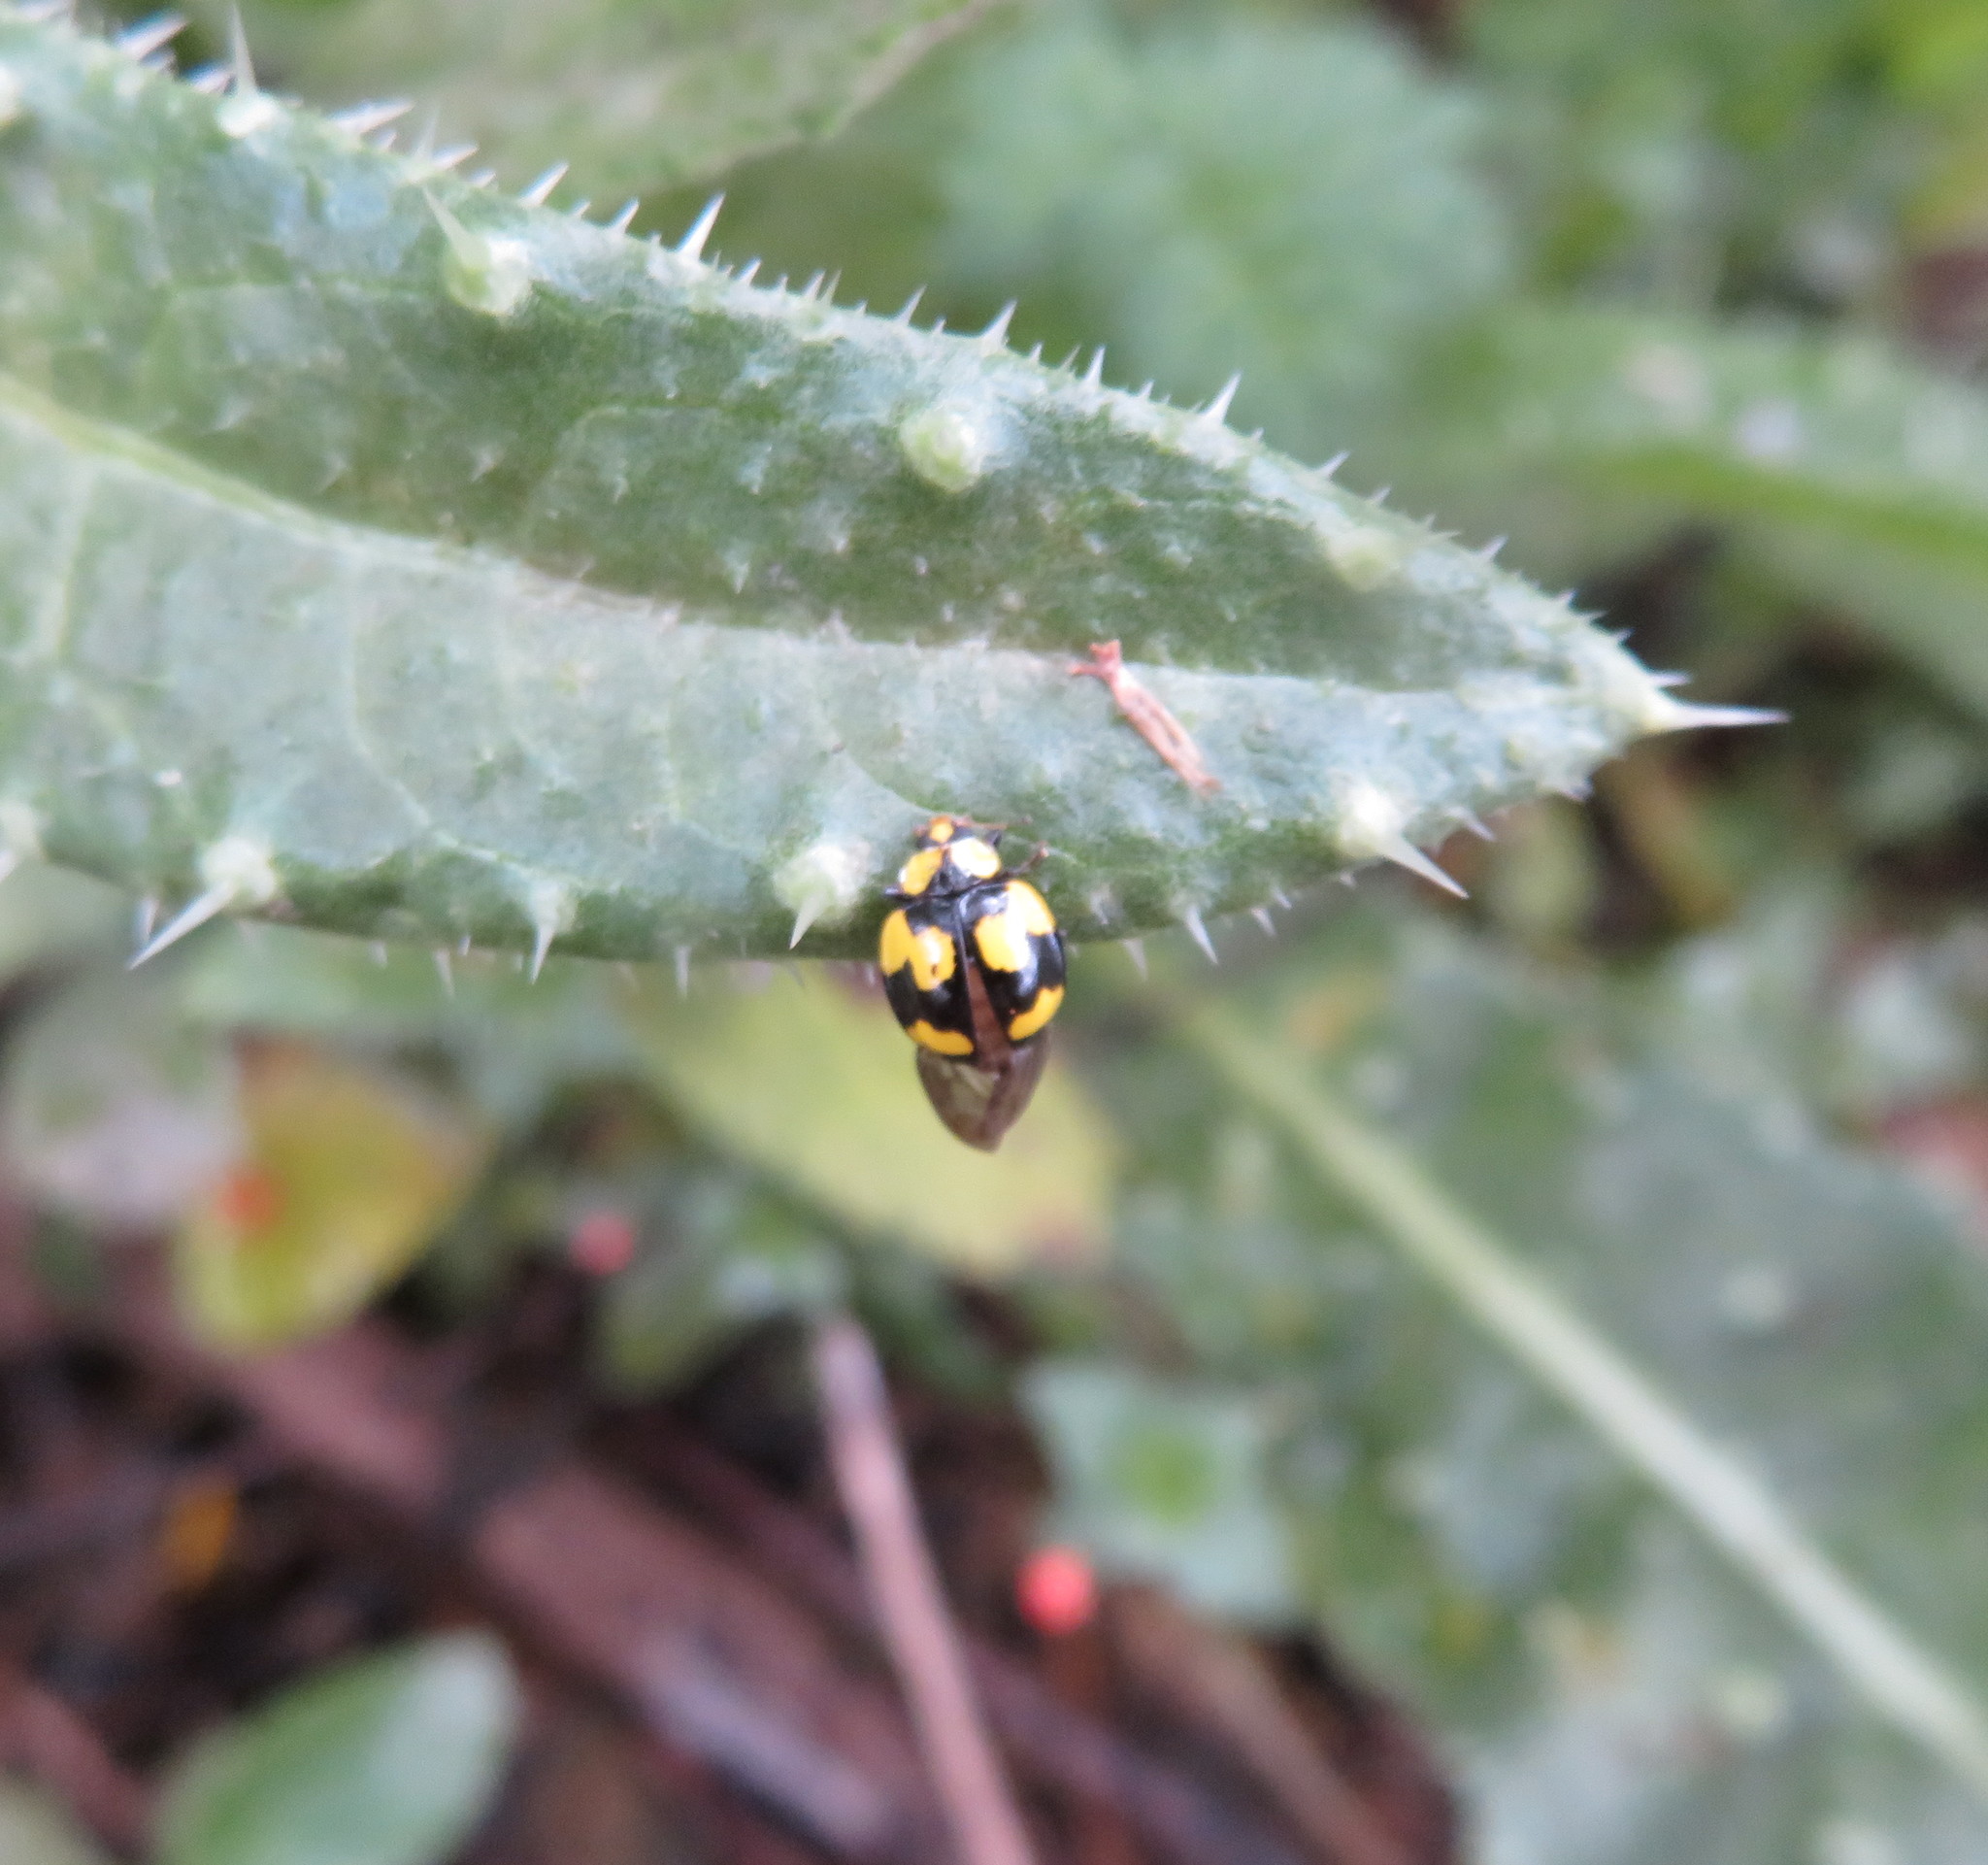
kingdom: Animalia
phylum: Arthropoda
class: Insecta
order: Coleoptera
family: Coccinellidae
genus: Illeis
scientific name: Illeis galbula
